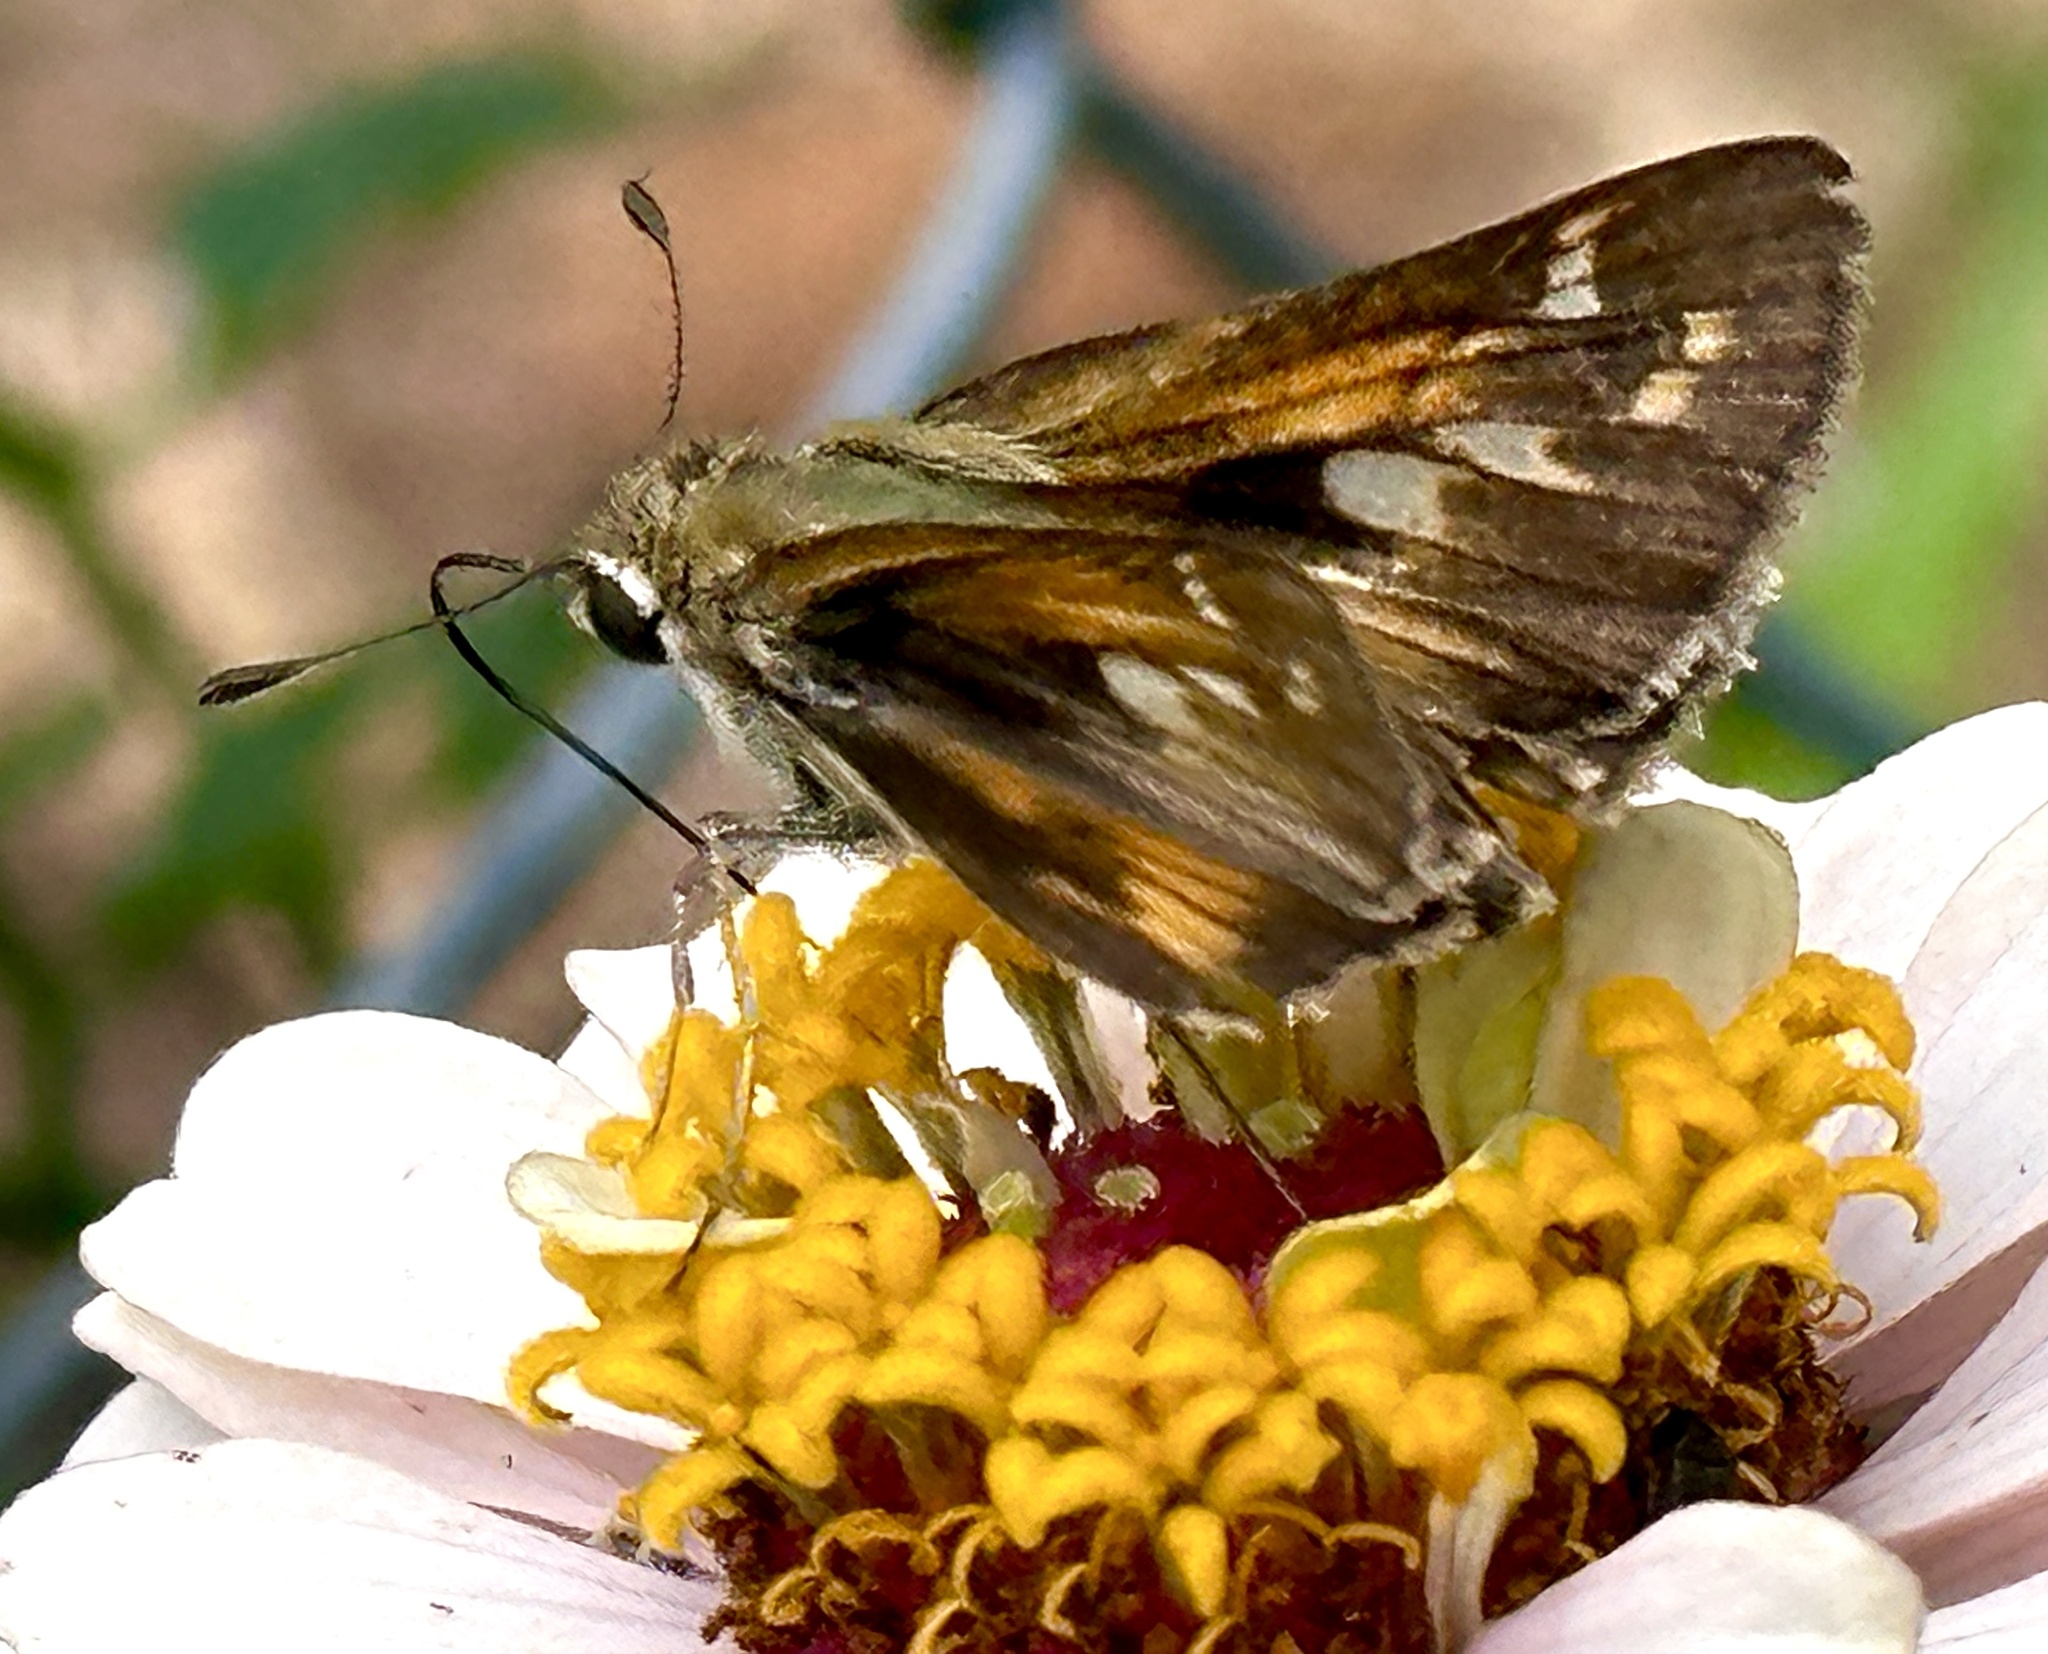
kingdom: Animalia
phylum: Arthropoda
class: Insecta
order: Lepidoptera
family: Hesperiidae
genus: Atalopedes
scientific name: Atalopedes
